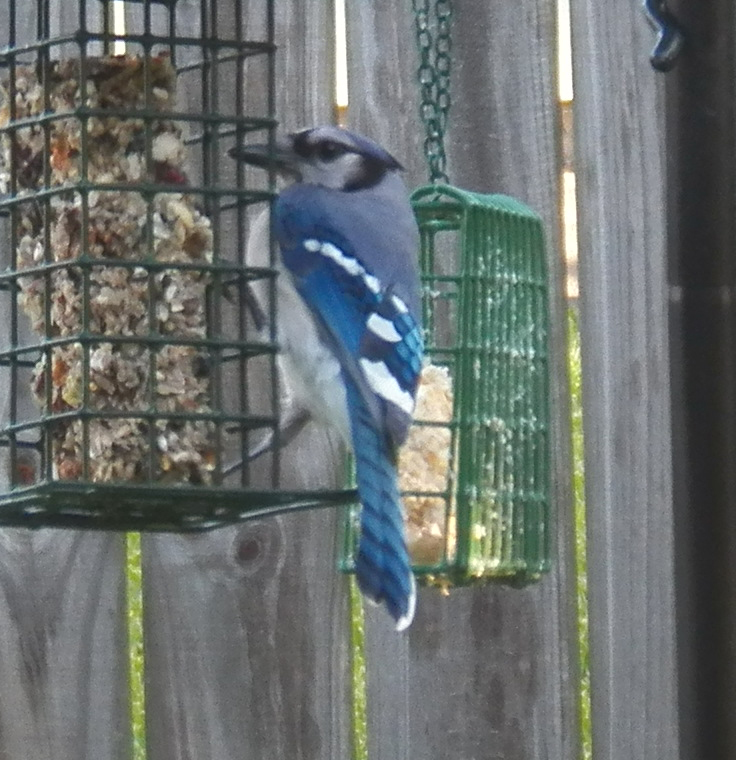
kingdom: Animalia
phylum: Chordata
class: Aves
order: Passeriformes
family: Corvidae
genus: Cyanocitta
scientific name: Cyanocitta cristata
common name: Blue jay
